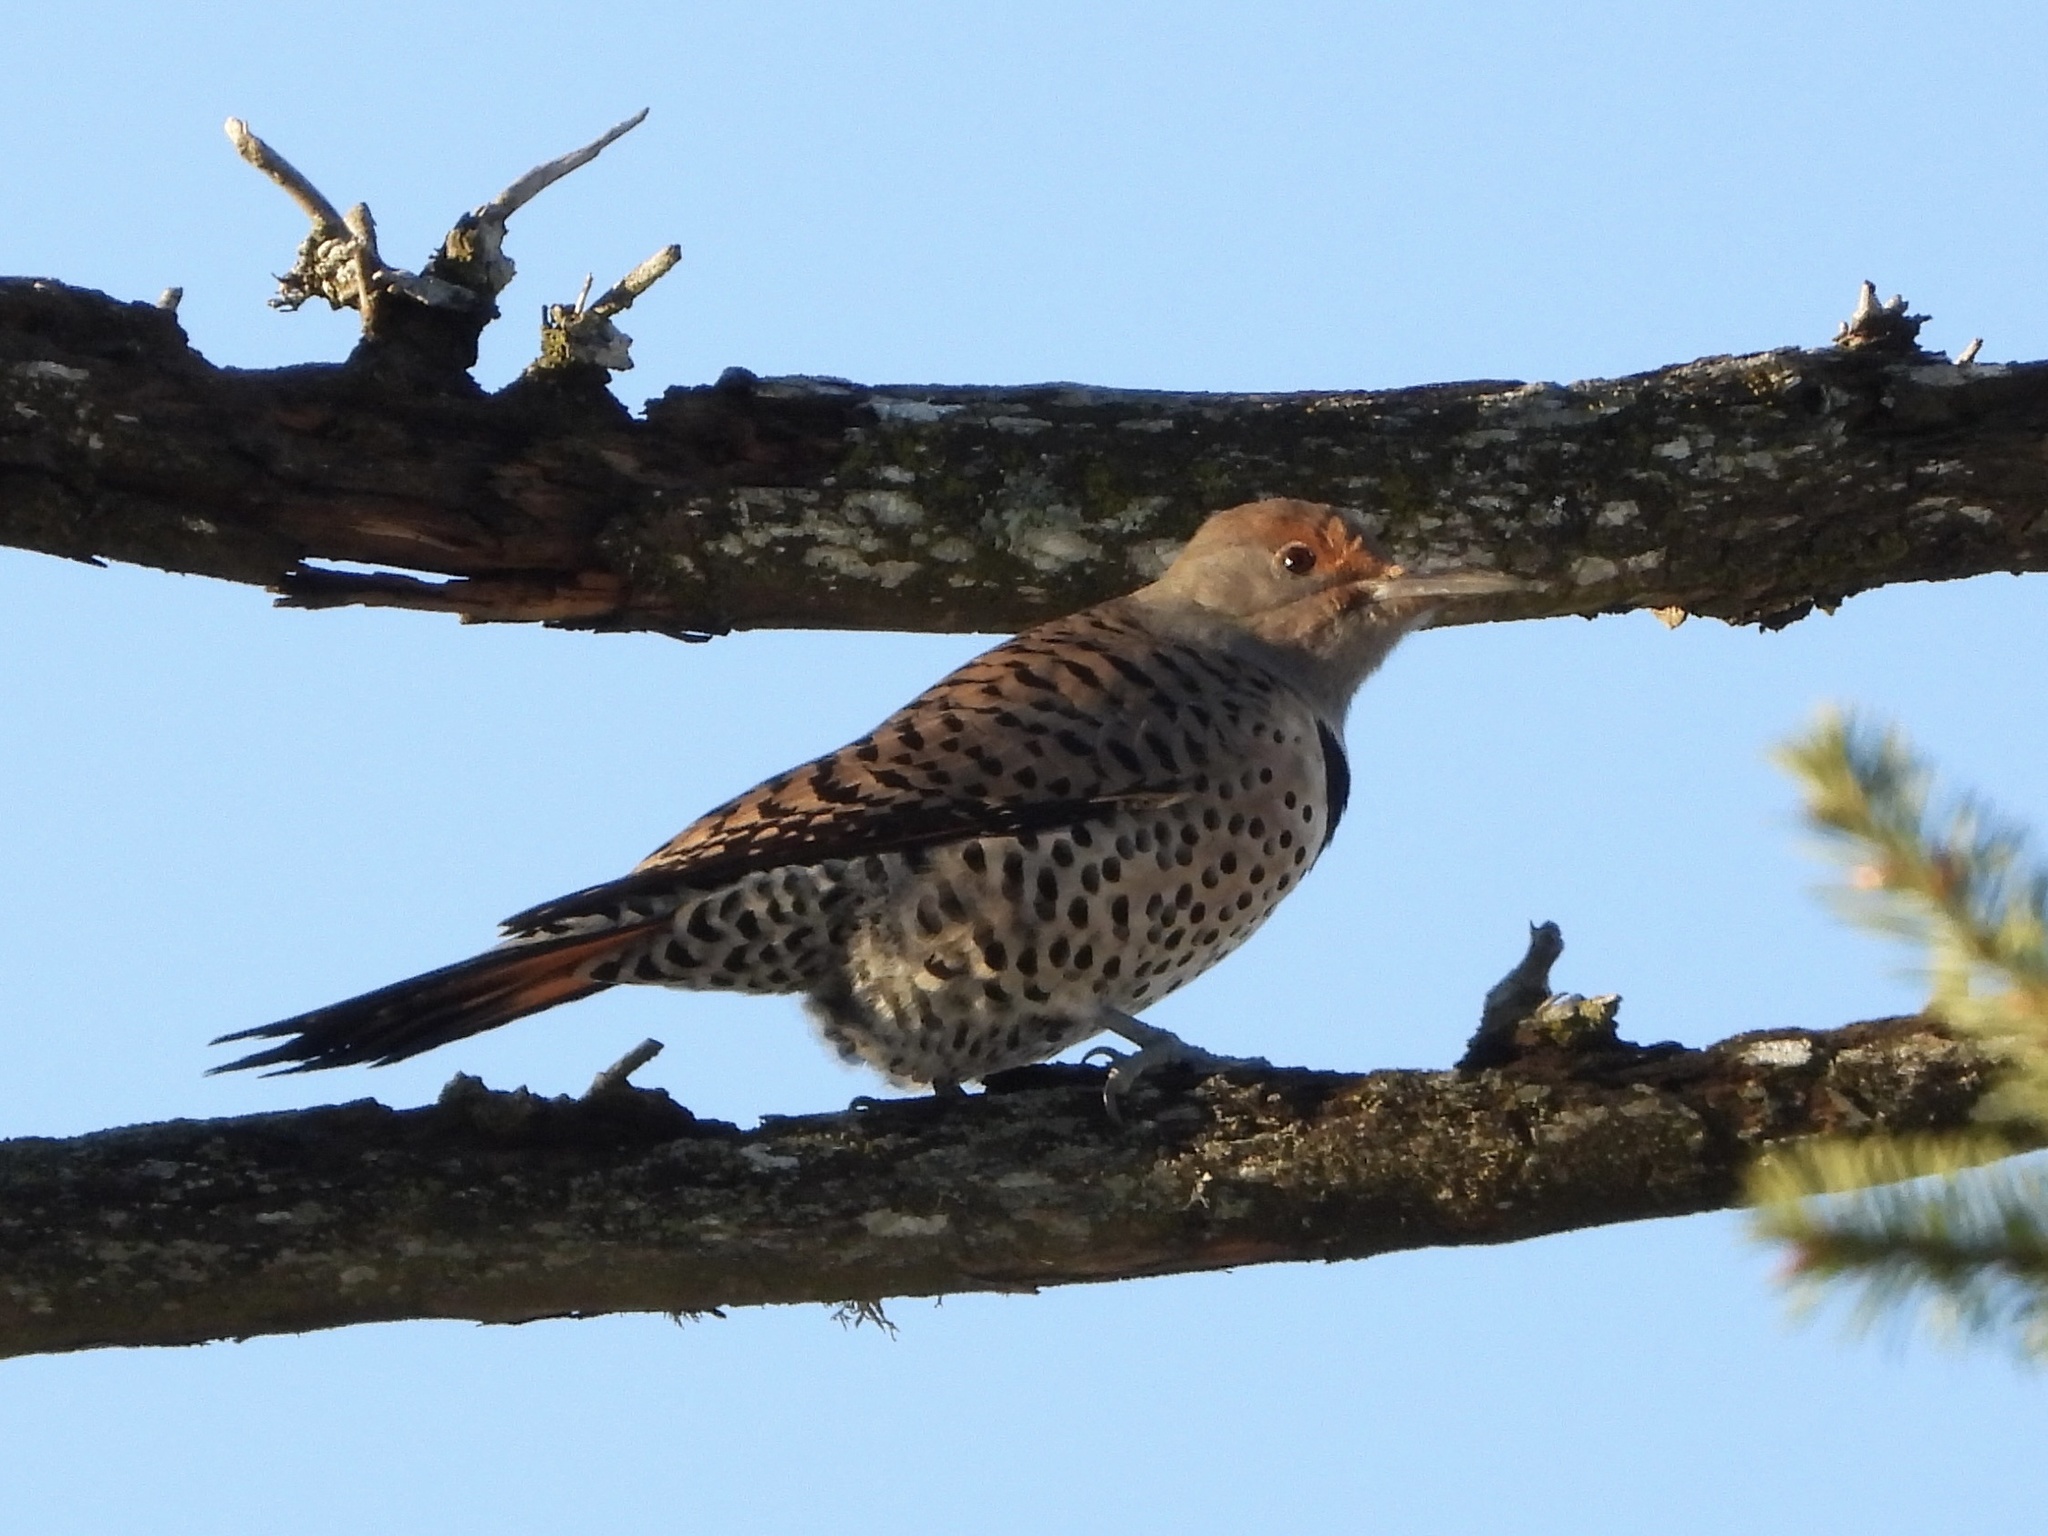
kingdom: Animalia
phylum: Chordata
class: Aves
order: Piciformes
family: Picidae
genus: Colaptes
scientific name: Colaptes auratus
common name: Northern flicker
